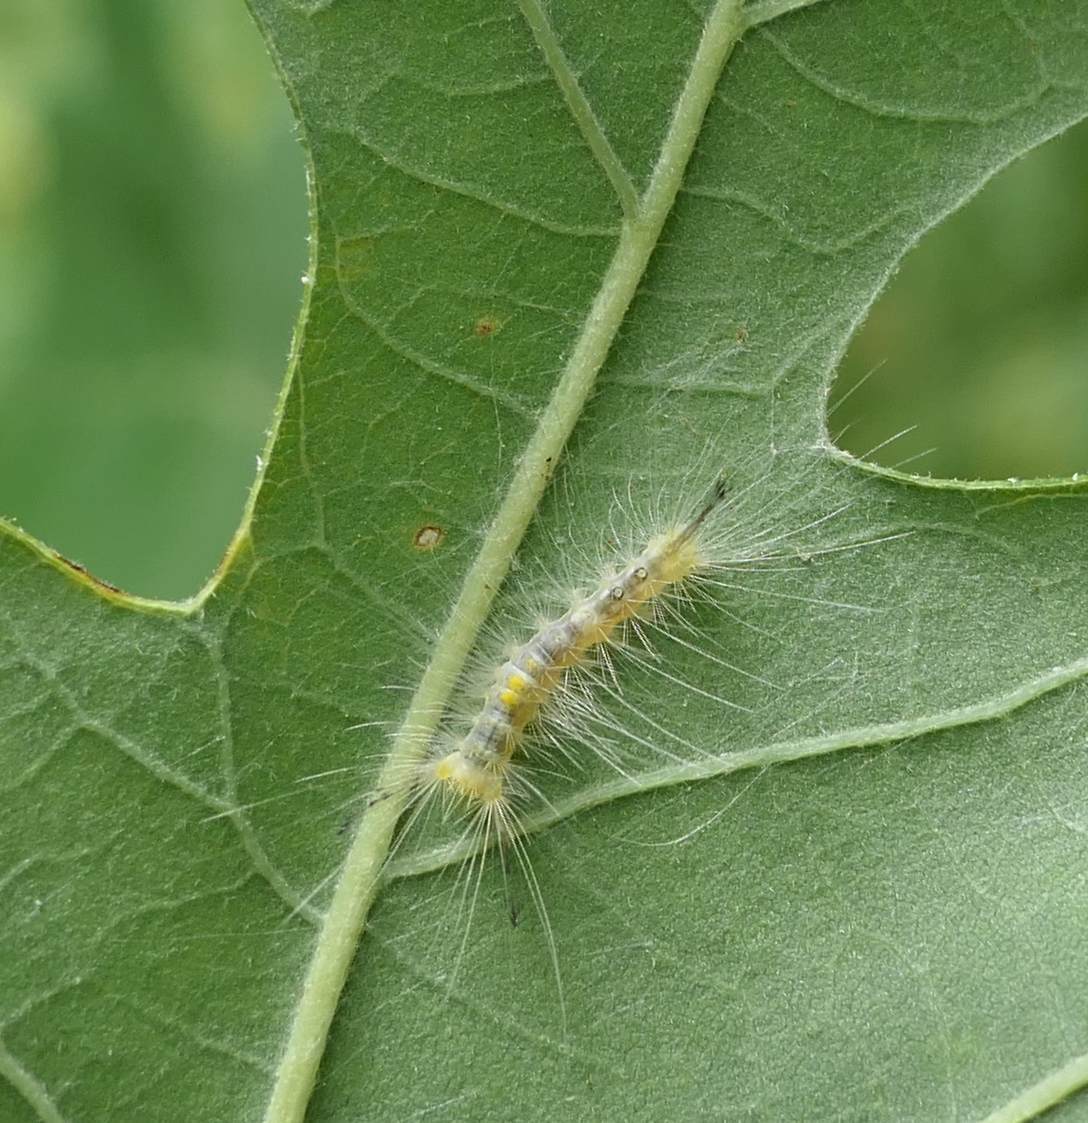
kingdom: Animalia
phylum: Arthropoda
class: Insecta
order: Lepidoptera
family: Erebidae
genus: Orgyia
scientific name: Orgyia definita
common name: Definite tussock moth
